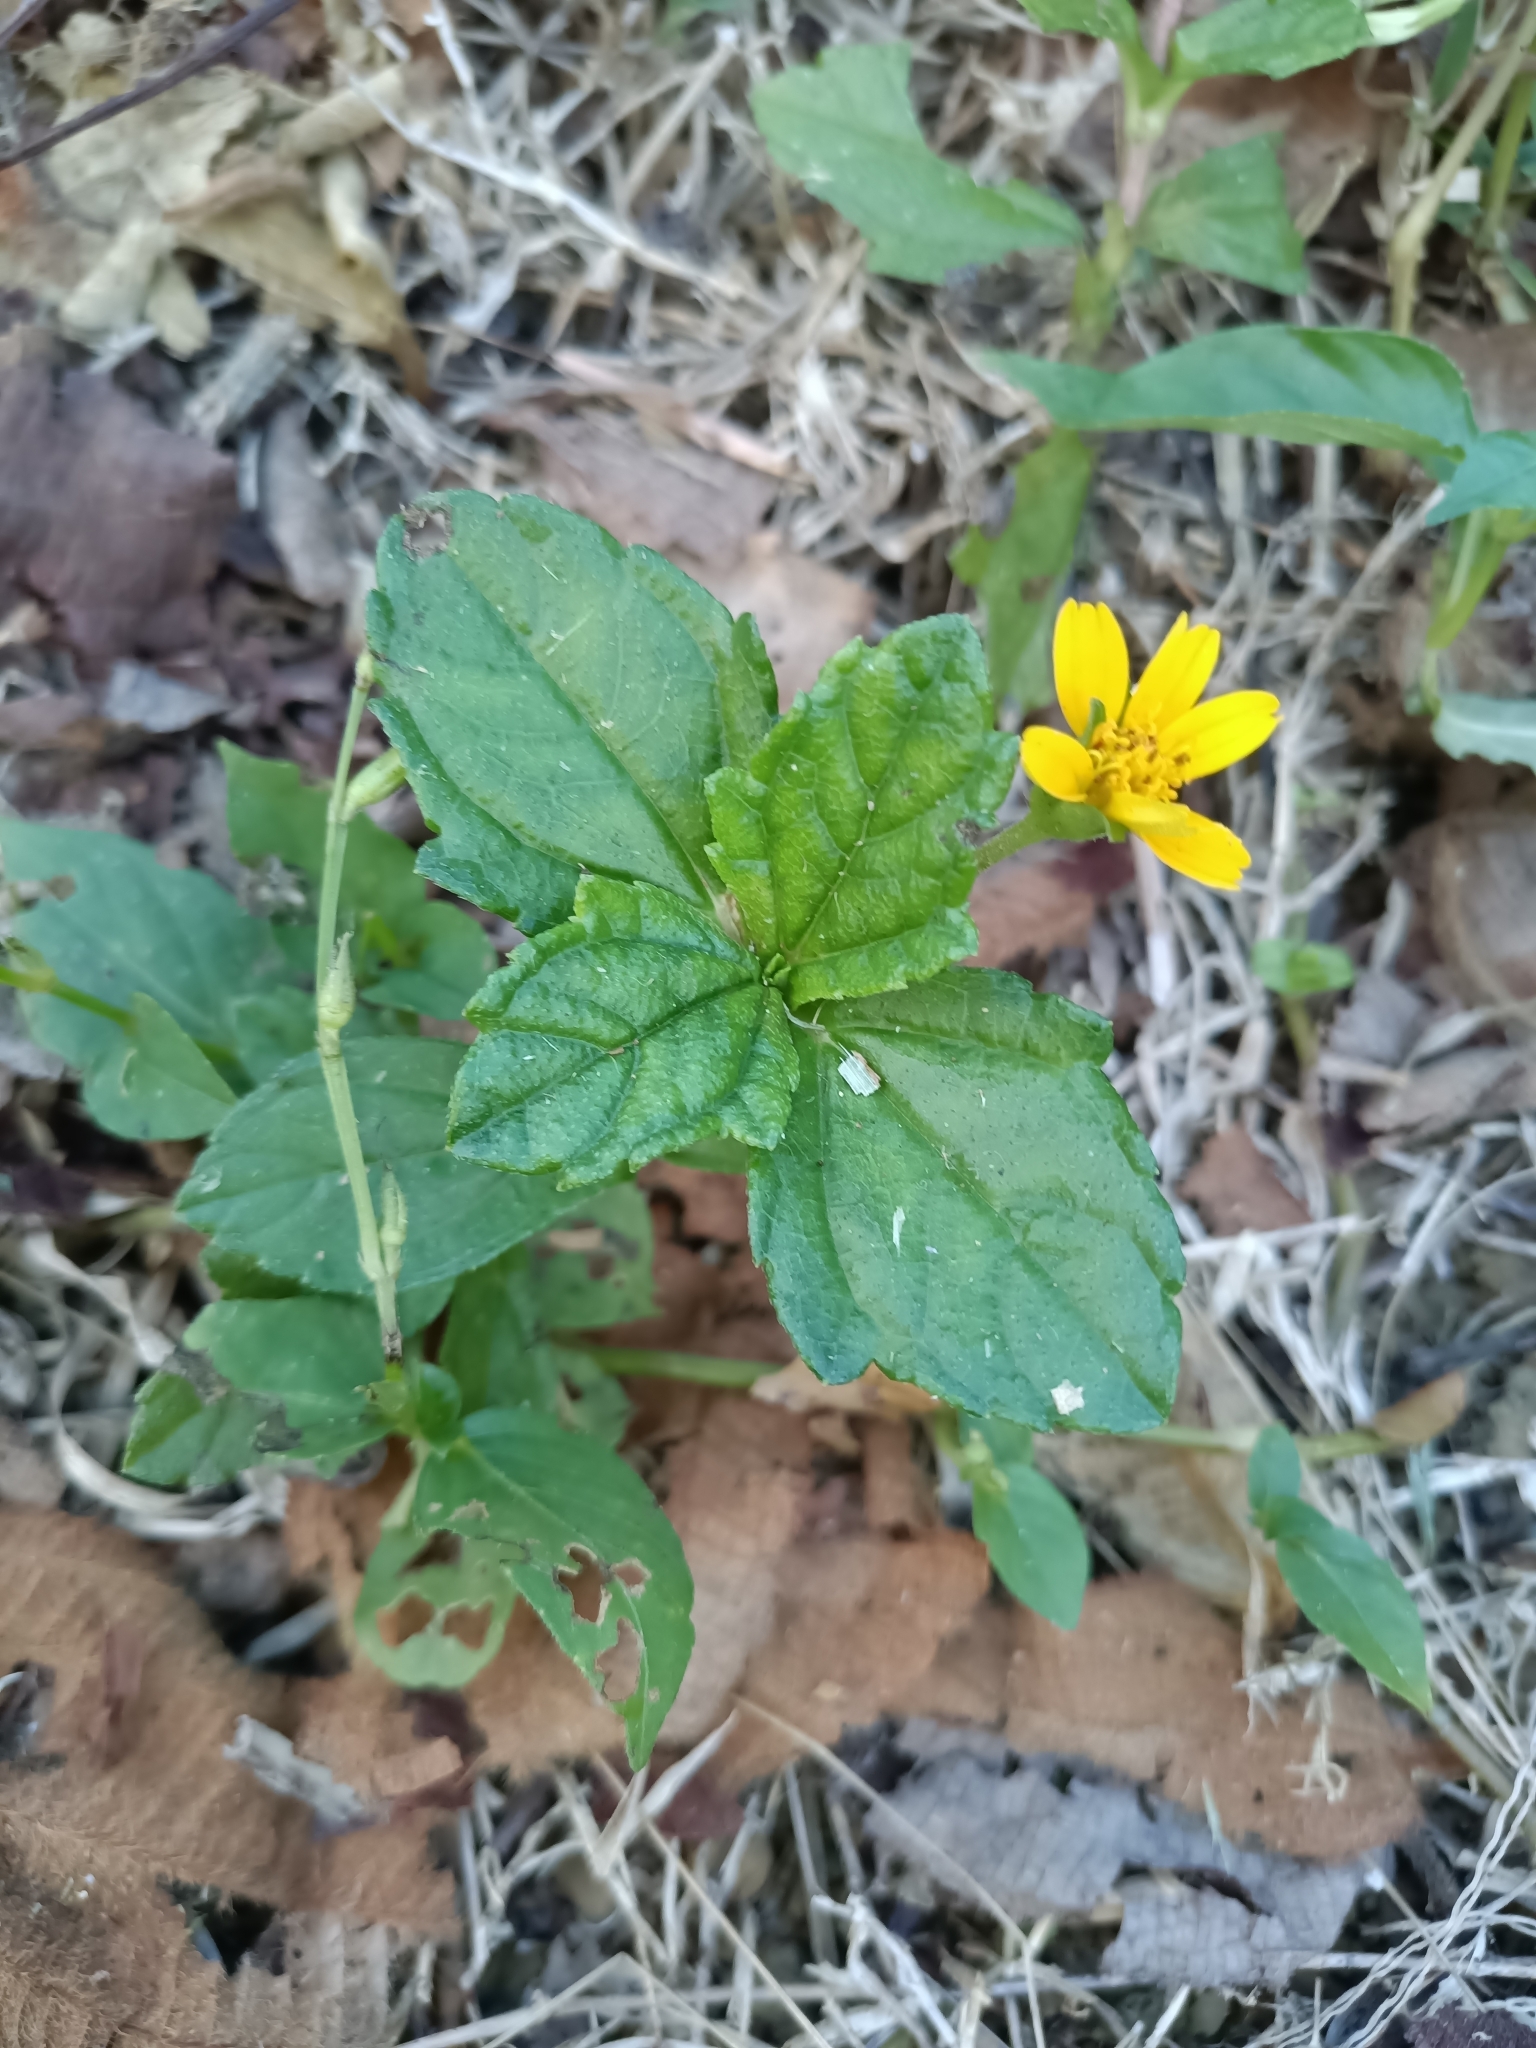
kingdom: Plantae
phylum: Tracheophyta
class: Magnoliopsida
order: Asterales
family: Asteraceae
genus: Sphagneticola
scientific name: Sphagneticola trilobata
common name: Bay biscayne creeping-oxeye
